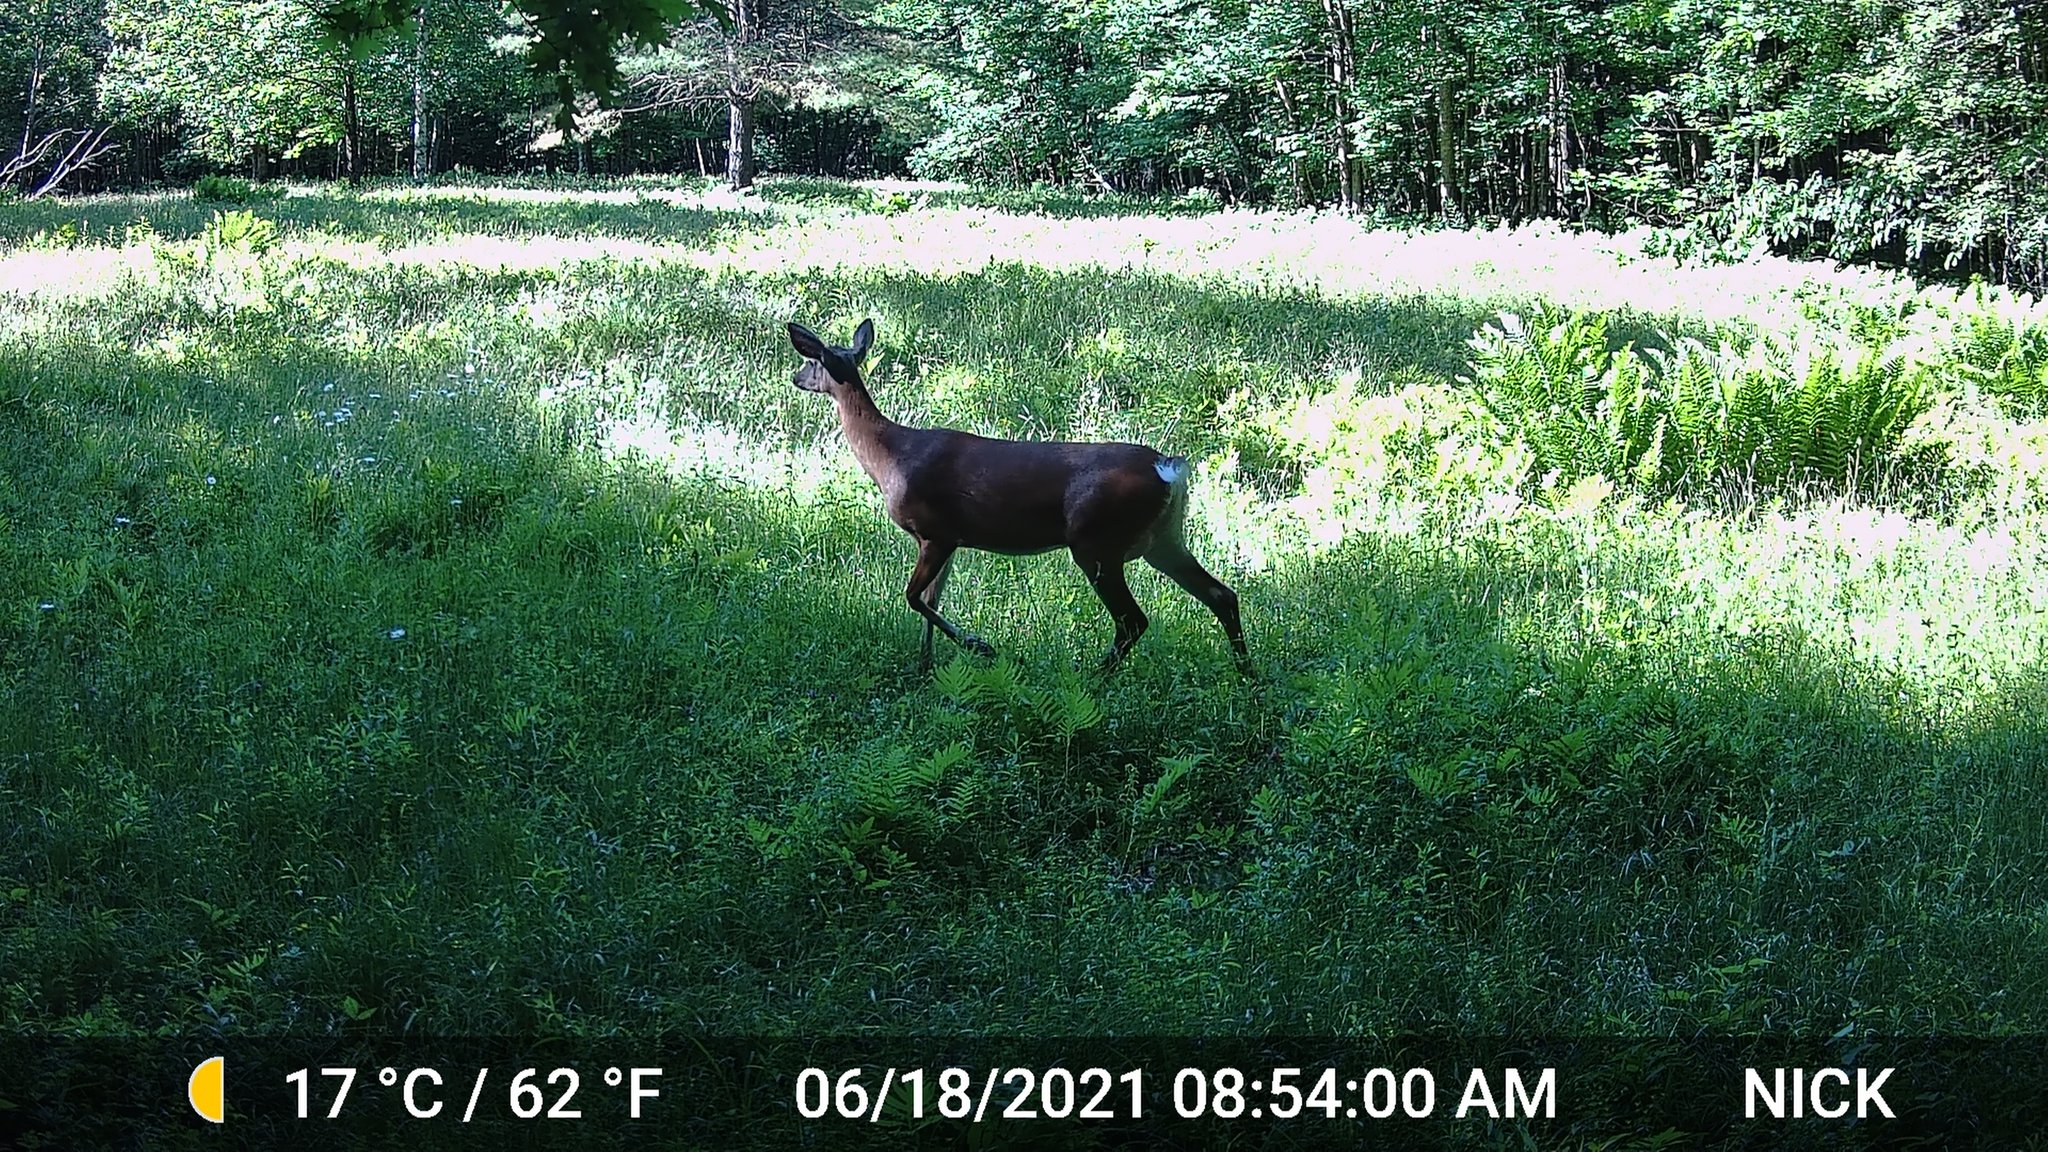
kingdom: Animalia
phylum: Chordata
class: Mammalia
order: Artiodactyla
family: Cervidae
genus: Odocoileus
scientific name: Odocoileus virginianus
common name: White-tailed deer
